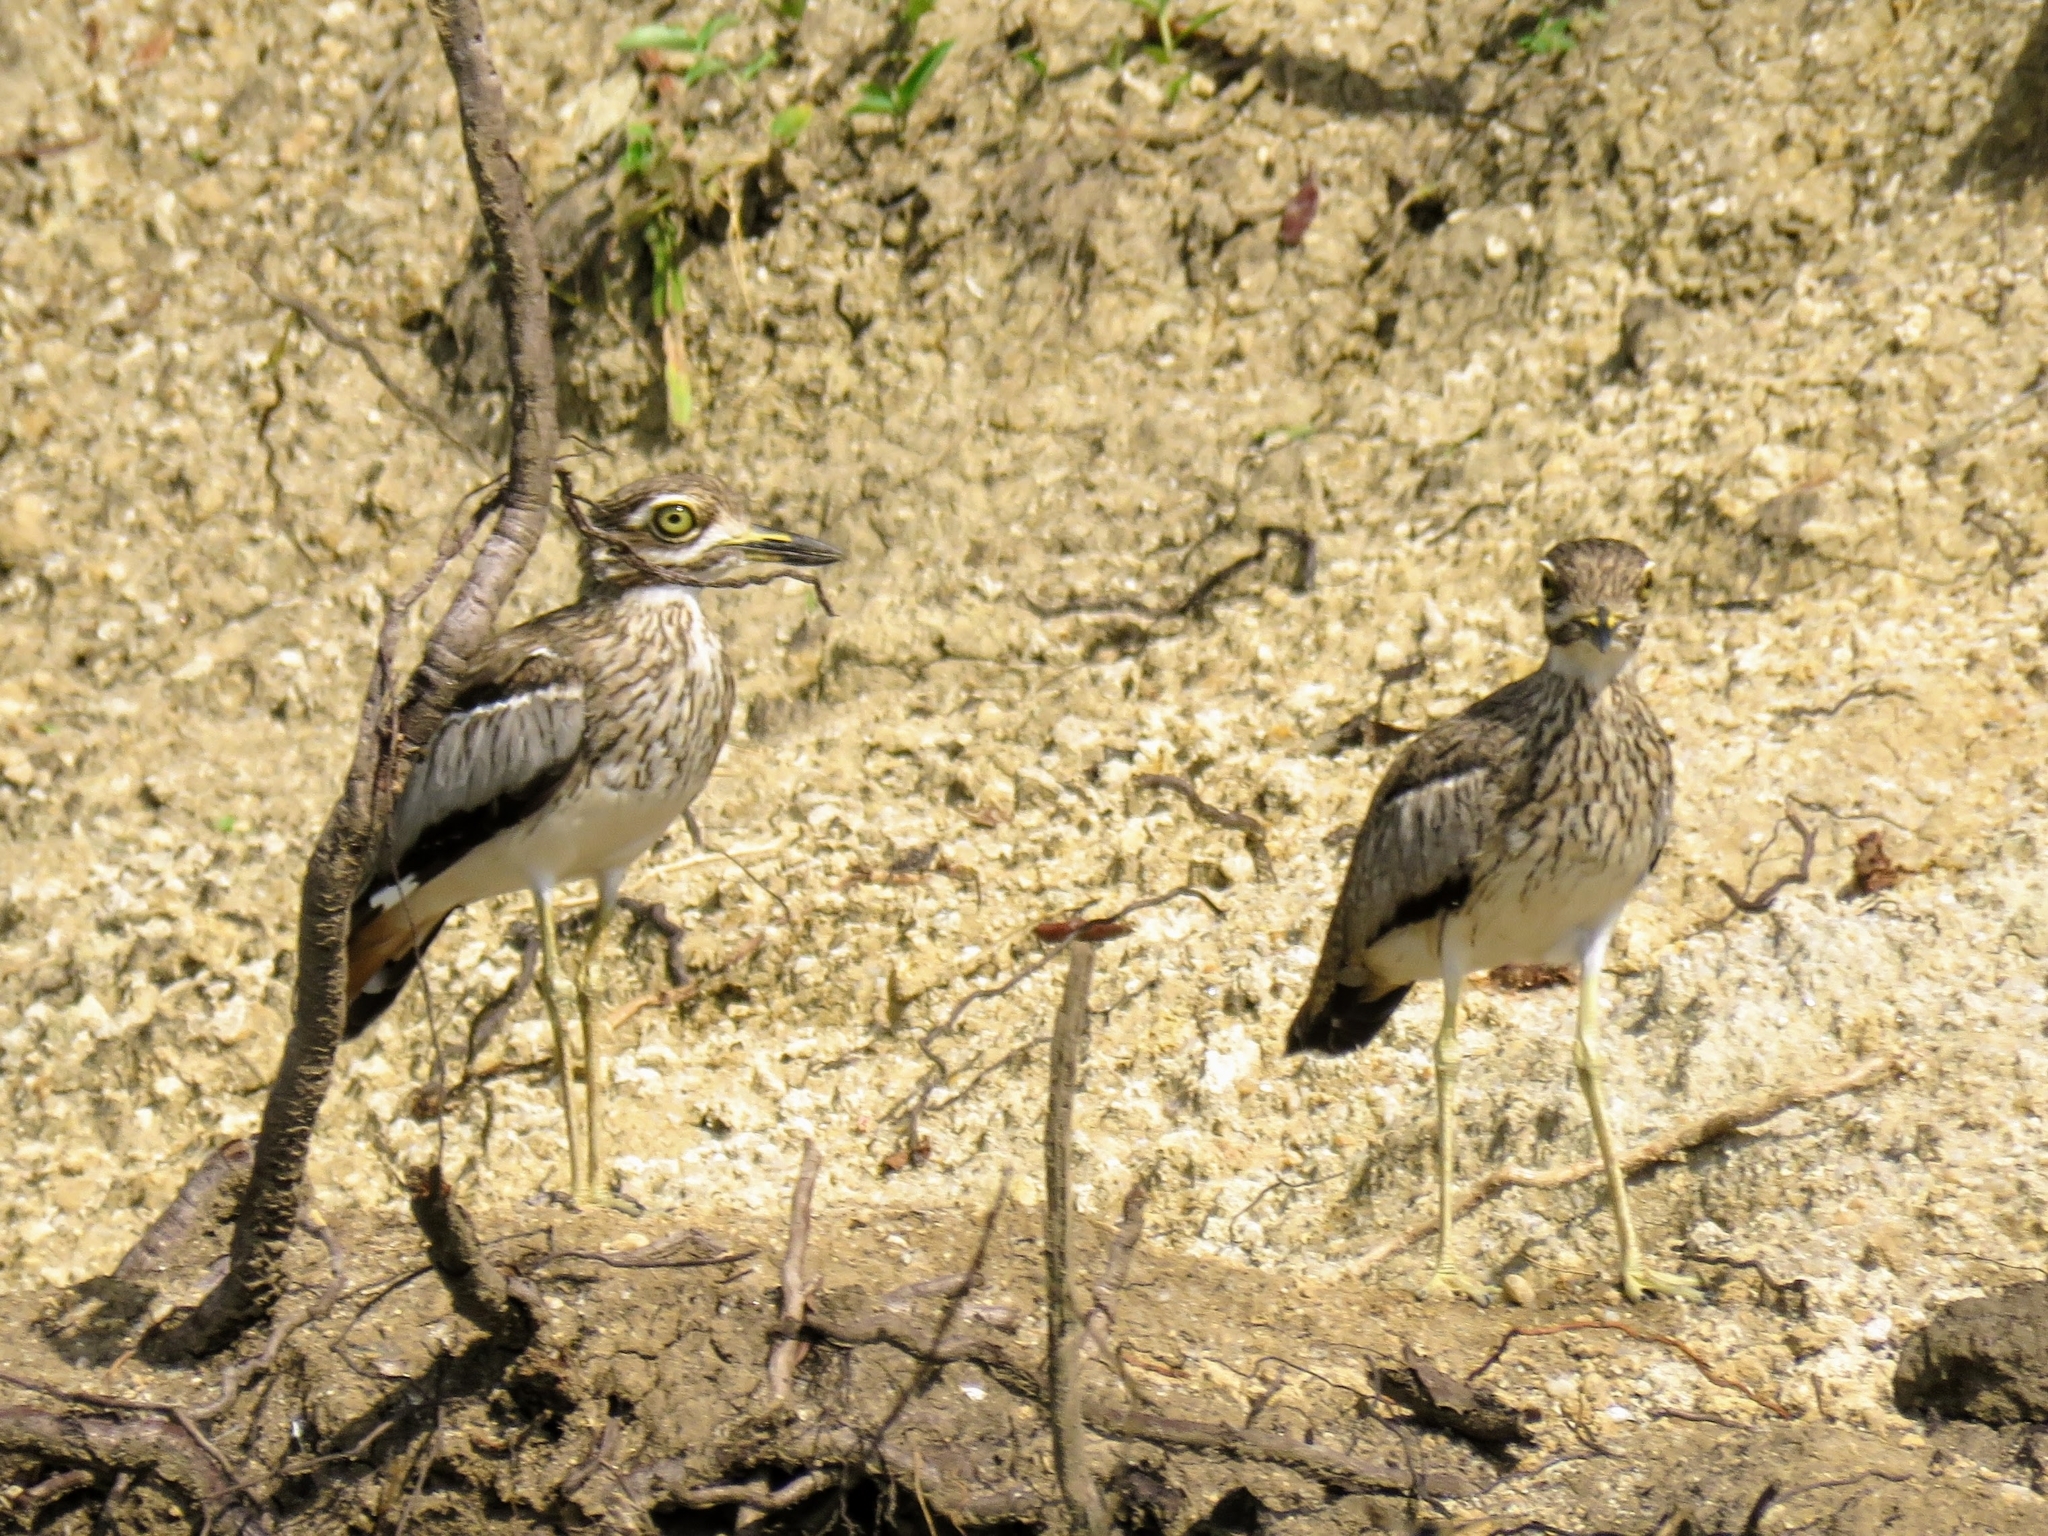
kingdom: Animalia
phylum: Chordata
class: Aves
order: Charadriiformes
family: Burhinidae
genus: Burhinus
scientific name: Burhinus vermiculatus
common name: Water thick-knee
